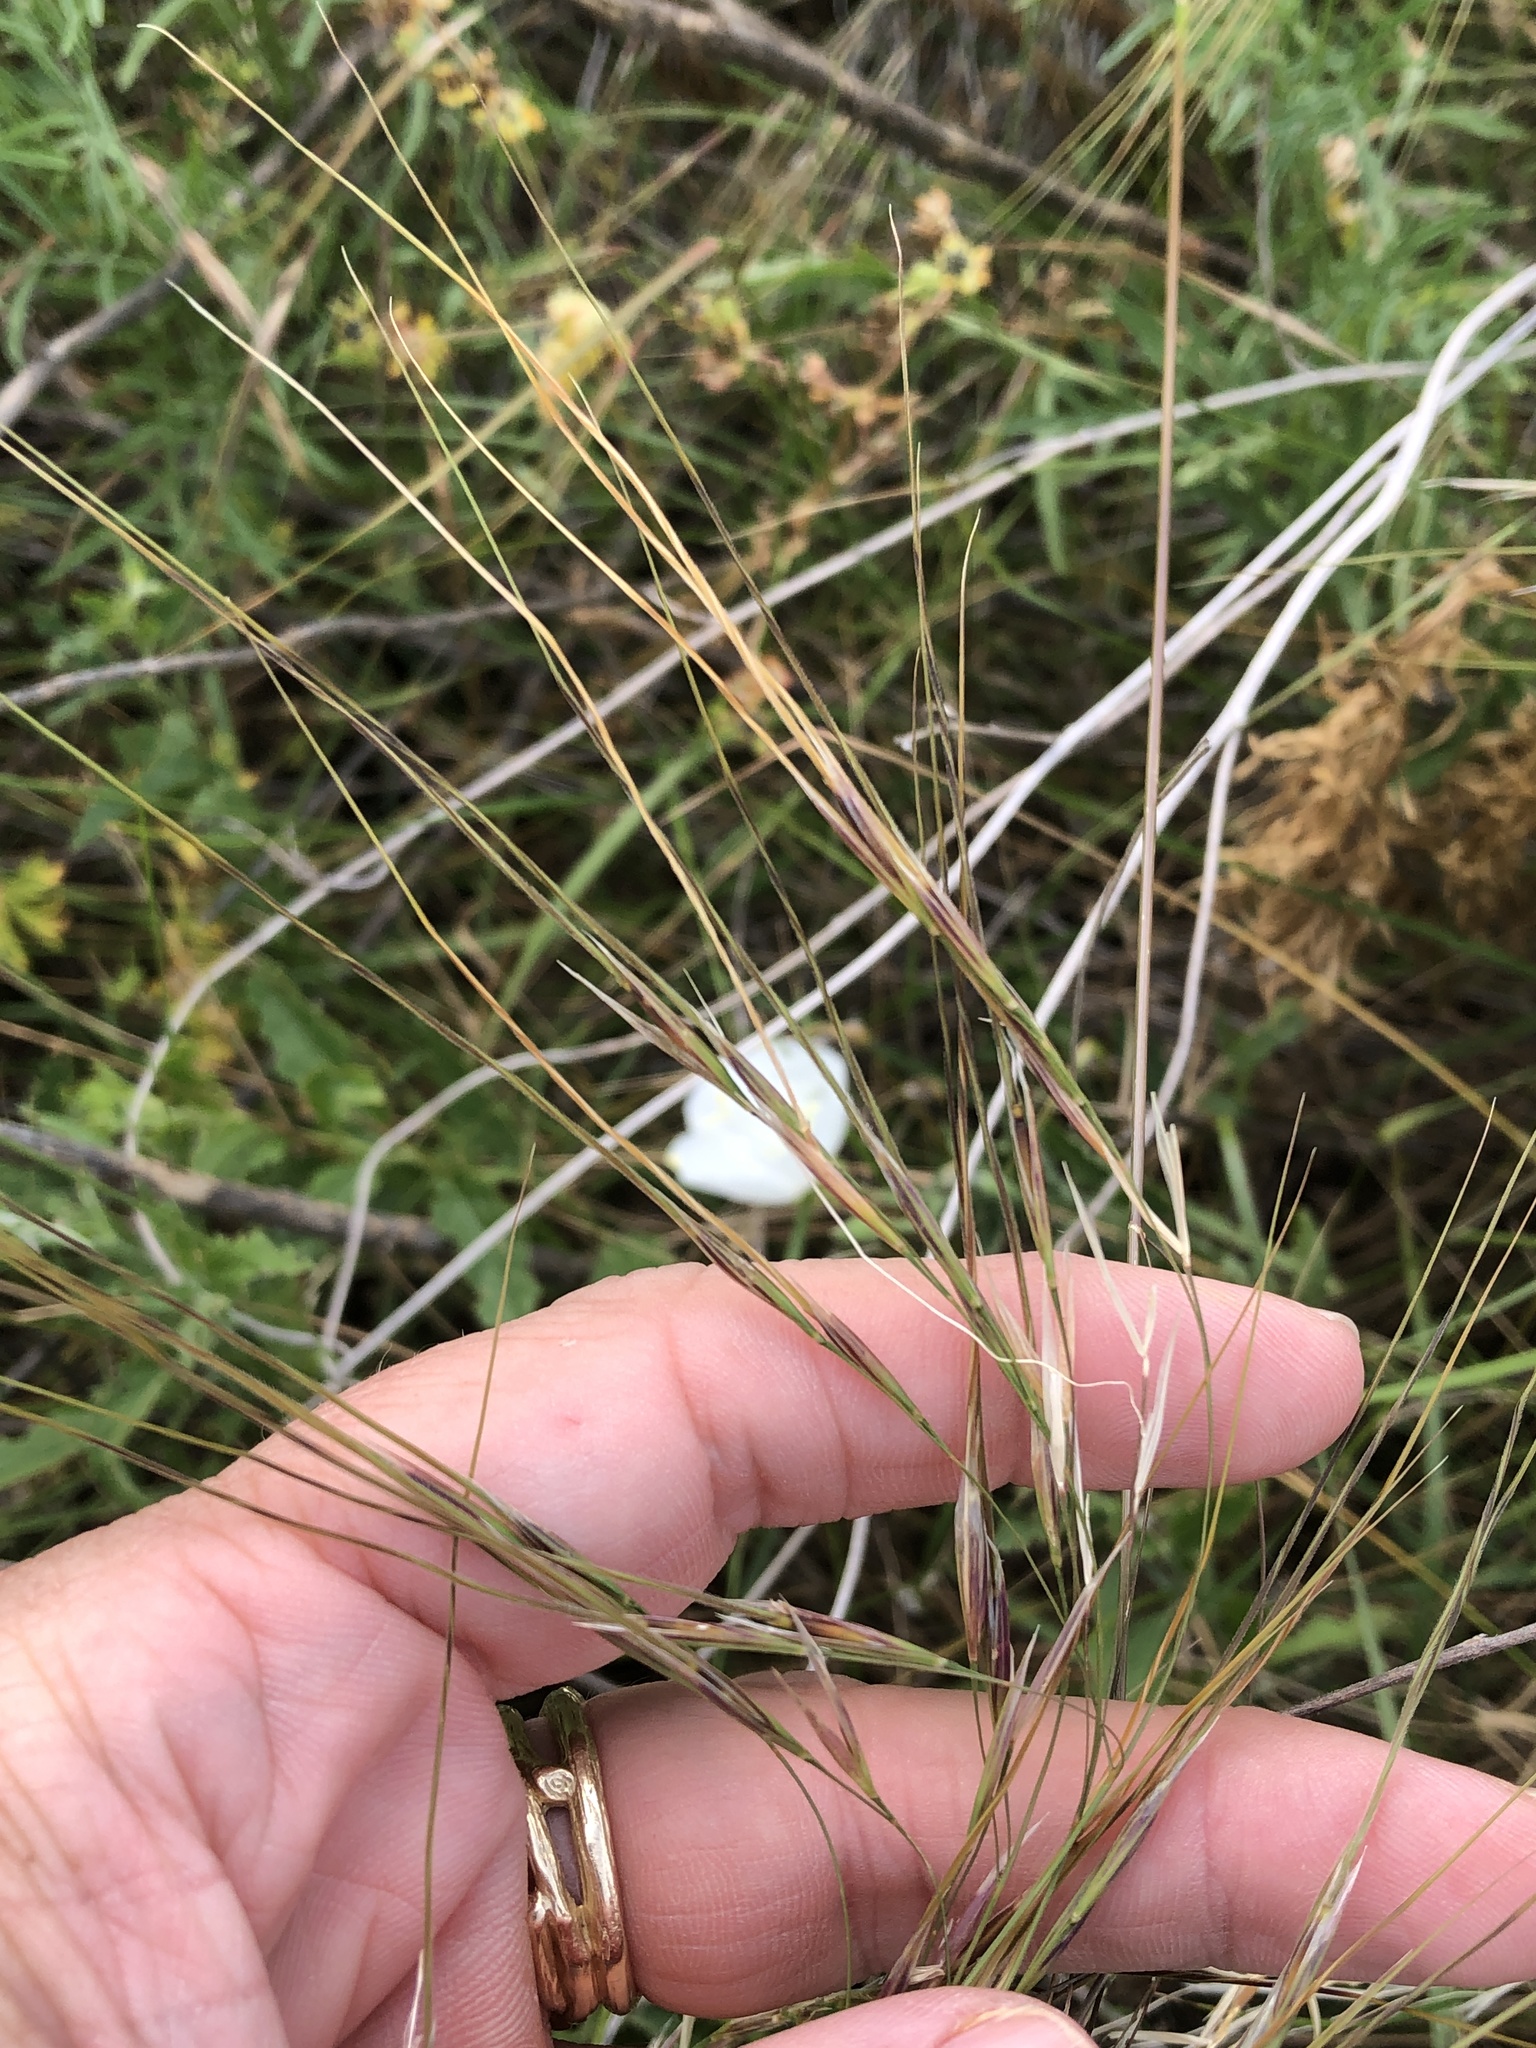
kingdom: Plantae
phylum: Tracheophyta
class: Liliopsida
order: Poales
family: Poaceae
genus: Nassella
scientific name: Nassella leucotricha
